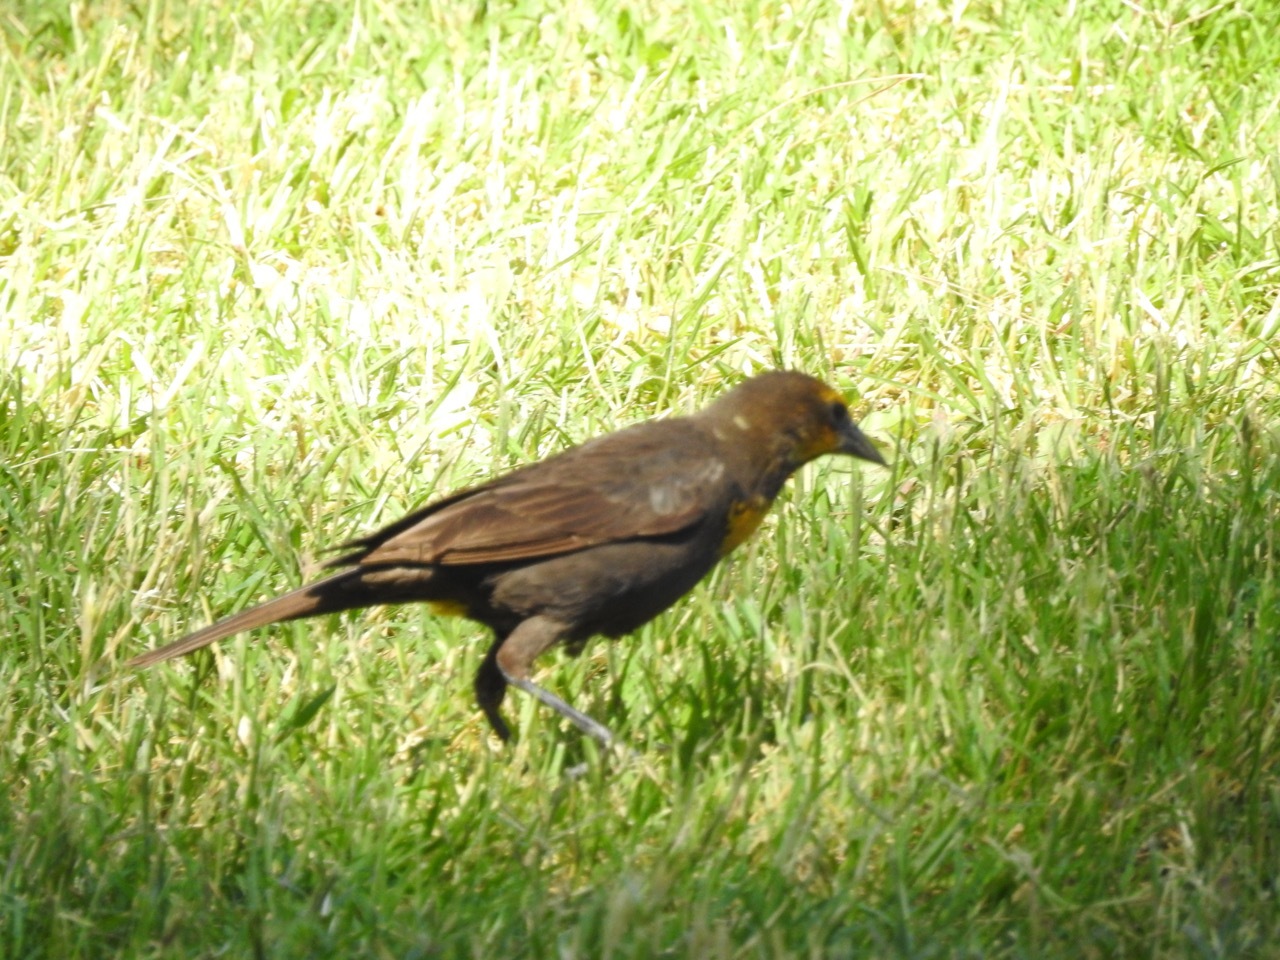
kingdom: Animalia
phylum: Chordata
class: Aves
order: Passeriformes
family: Icteridae
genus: Xanthocephalus
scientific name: Xanthocephalus xanthocephalus
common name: Yellow-headed blackbird
